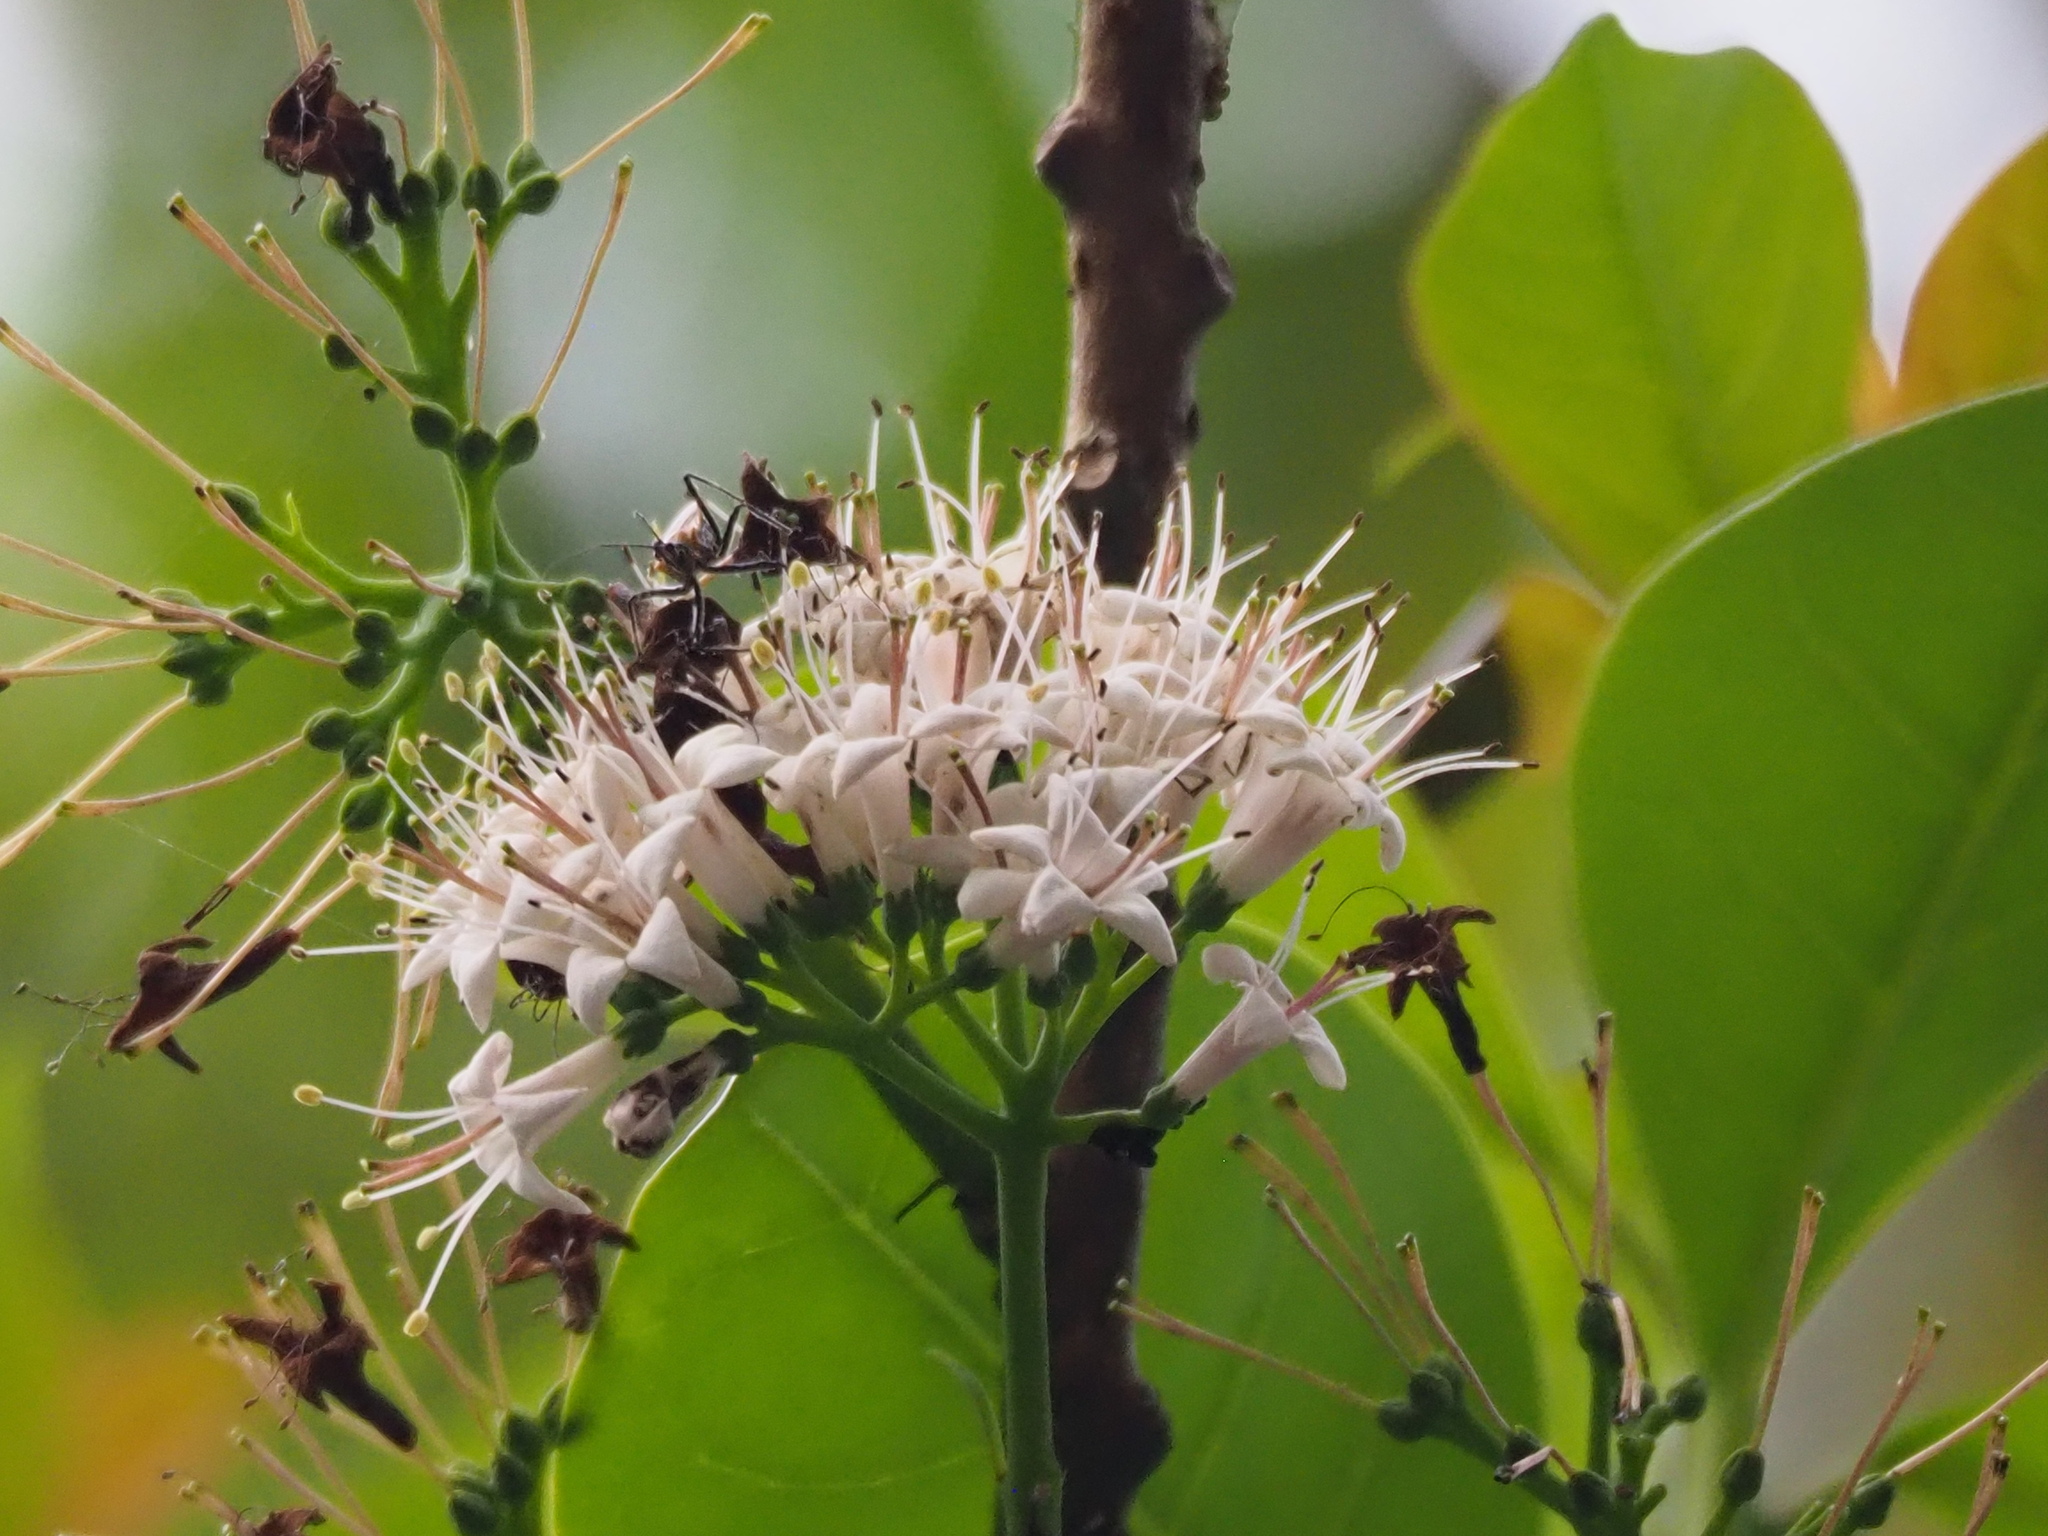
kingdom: Plantae
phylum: Tracheophyta
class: Magnoliopsida
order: Boraginales
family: Ehretiaceae
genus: Ehretia
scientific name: Ehretia longiflora
